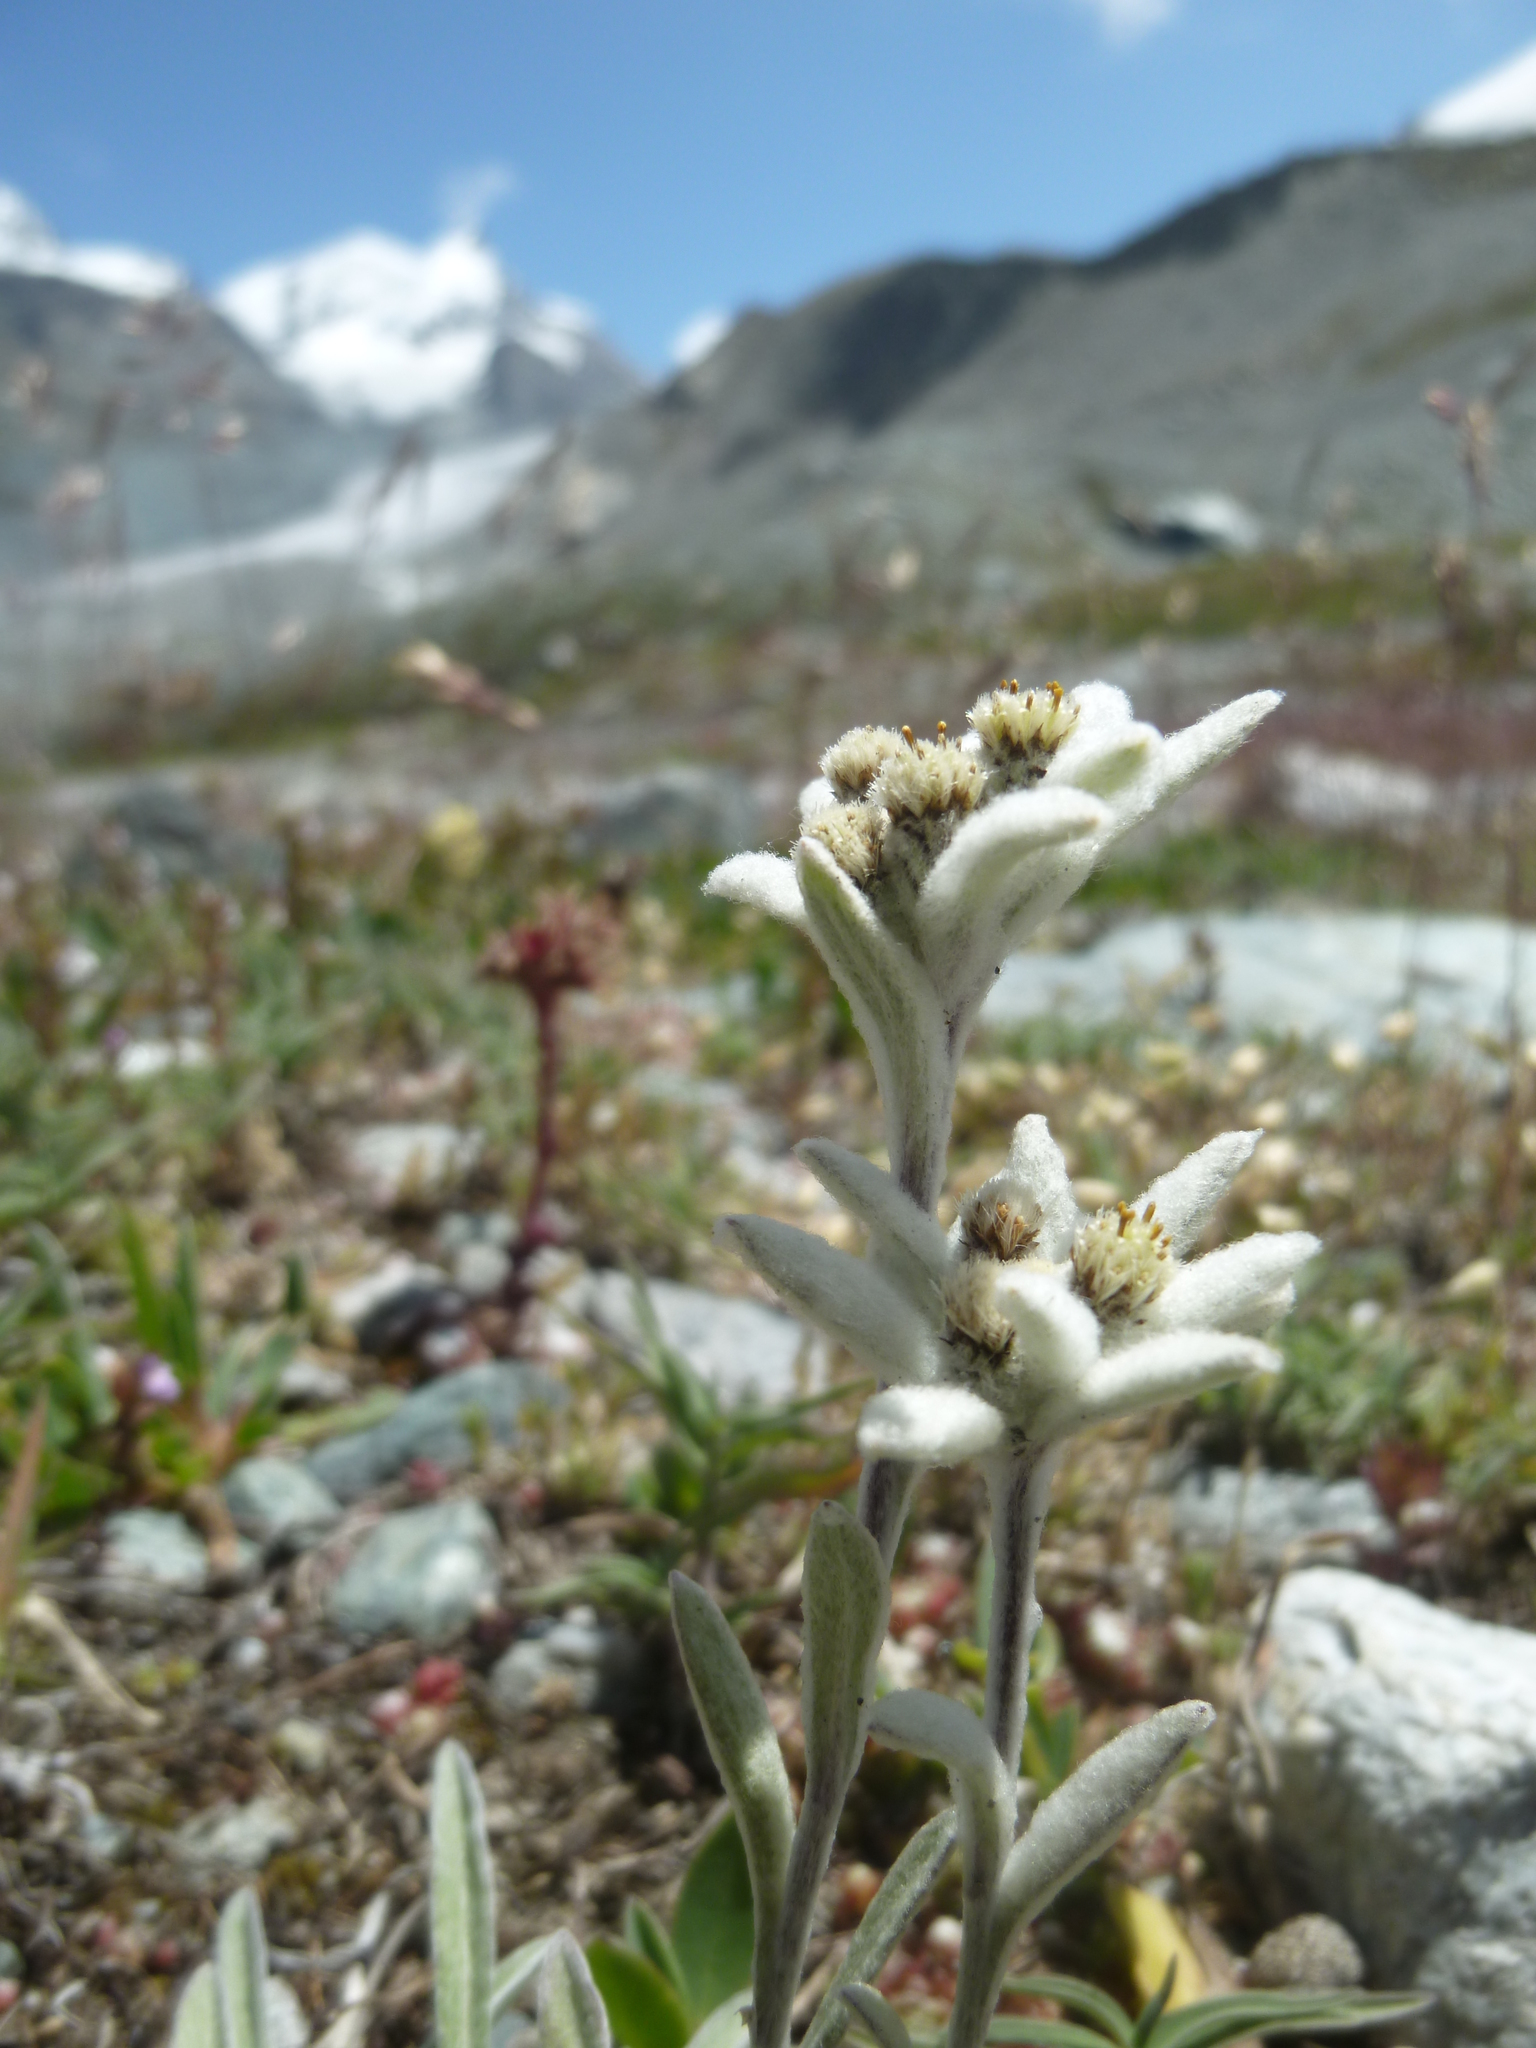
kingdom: Plantae
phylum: Tracheophyta
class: Magnoliopsida
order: Asterales
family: Asteraceae
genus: Leontopodium
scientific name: Leontopodium nivale
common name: Edelweiss
